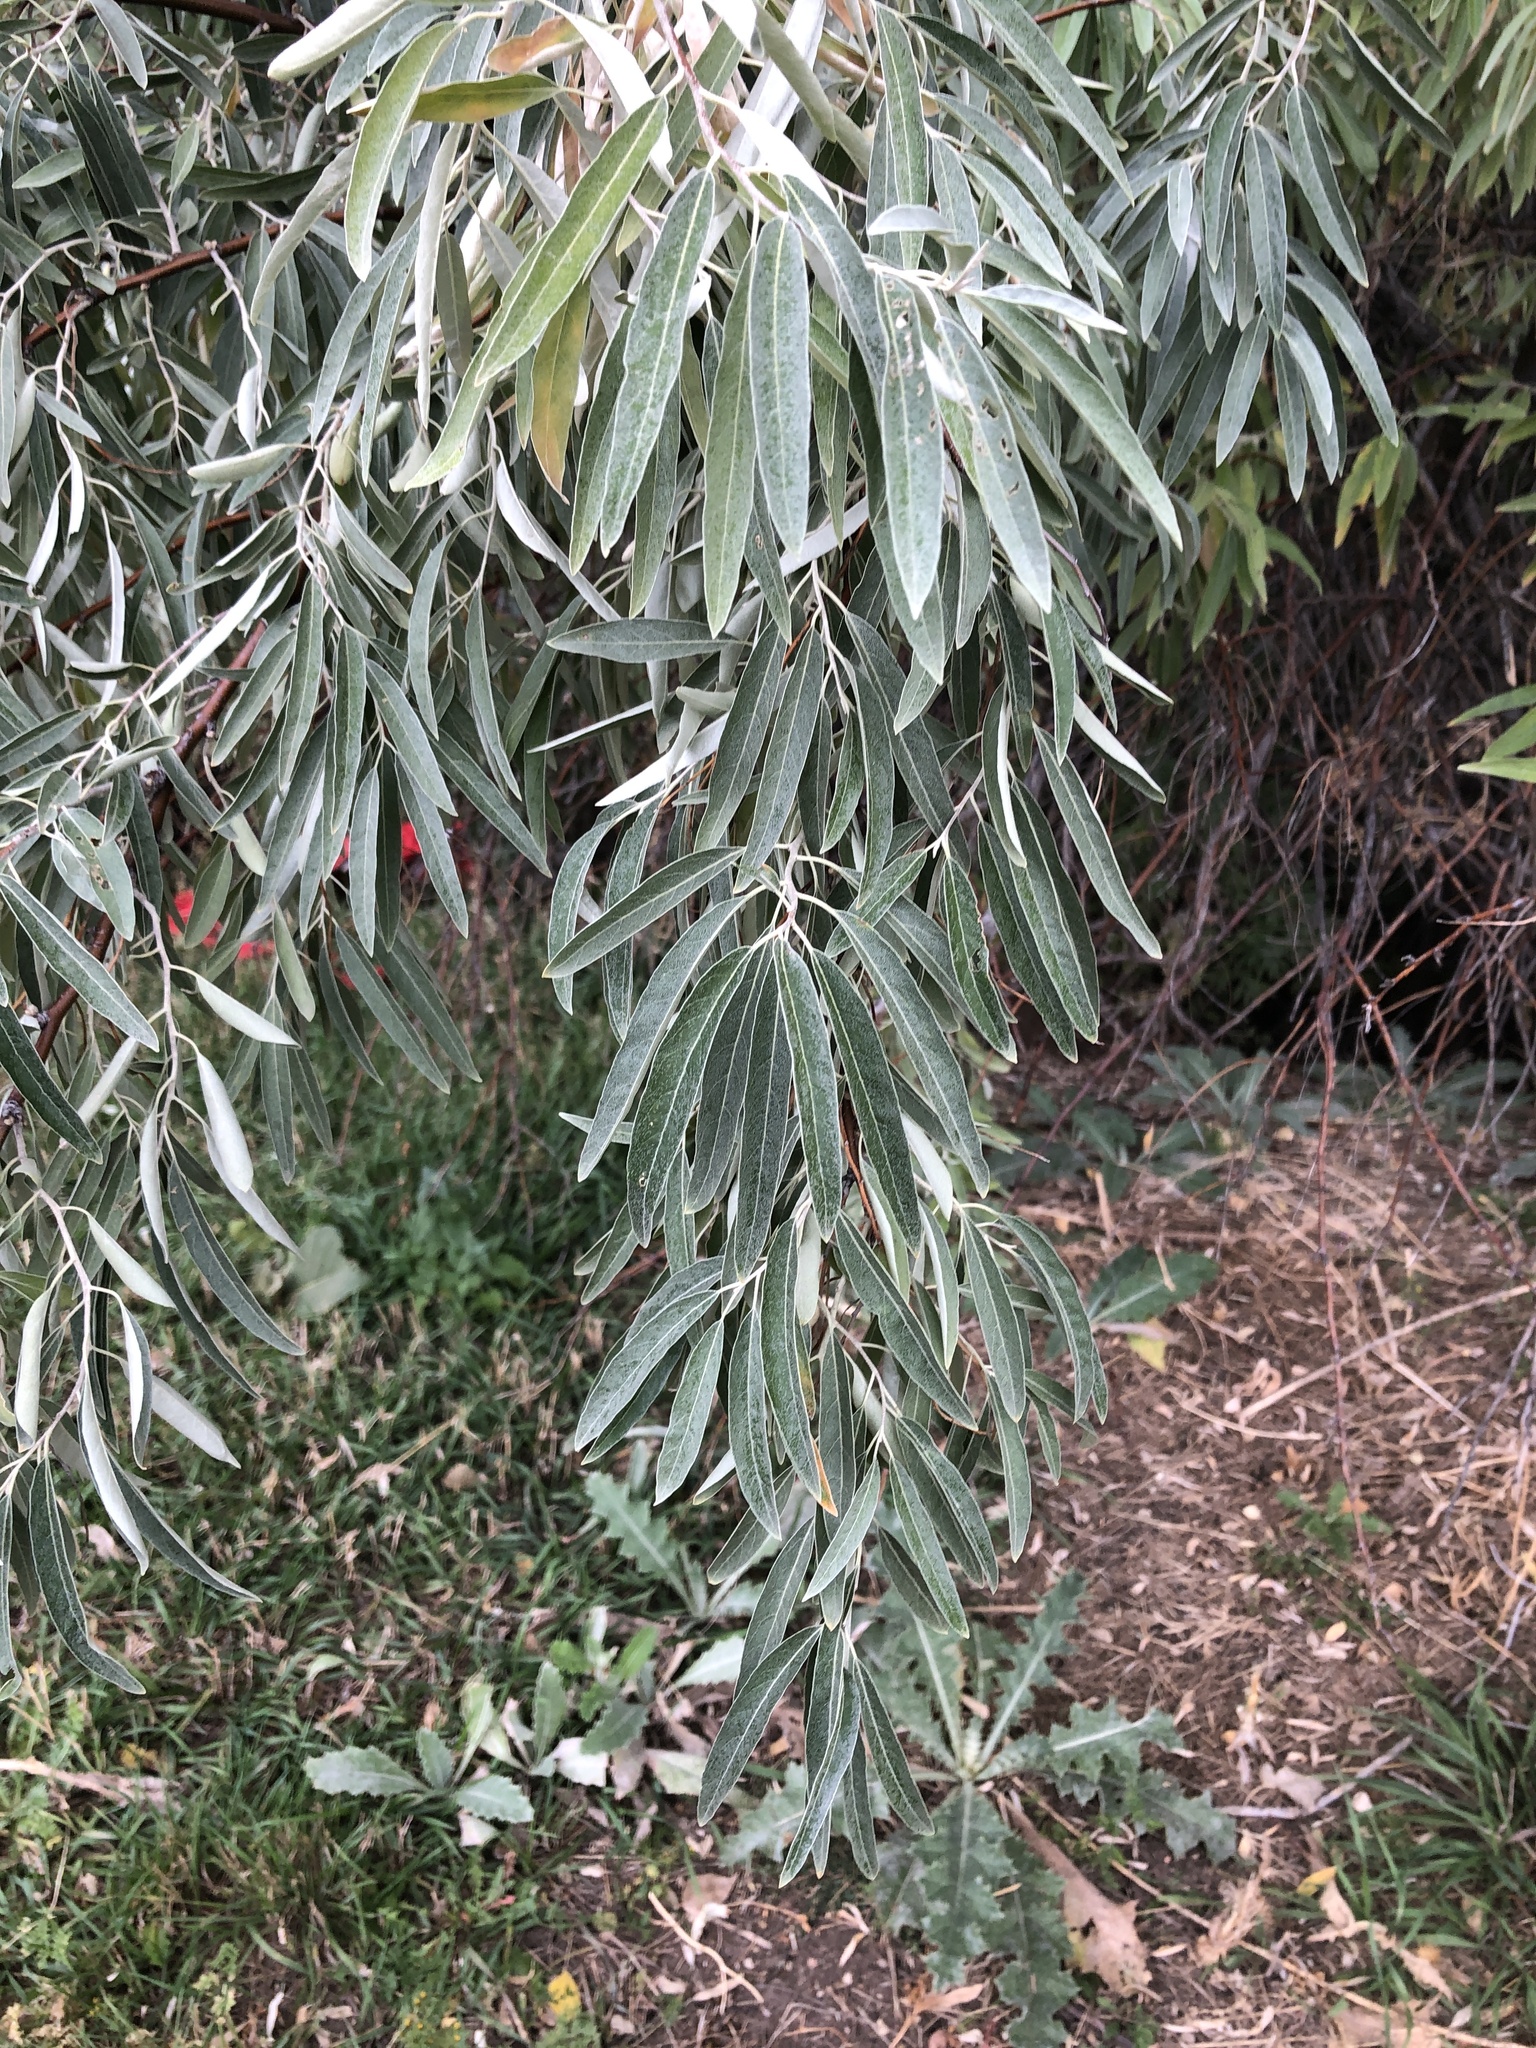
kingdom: Plantae
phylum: Tracheophyta
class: Magnoliopsida
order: Rosales
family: Elaeagnaceae
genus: Elaeagnus
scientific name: Elaeagnus angustifolia
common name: Russian olive
